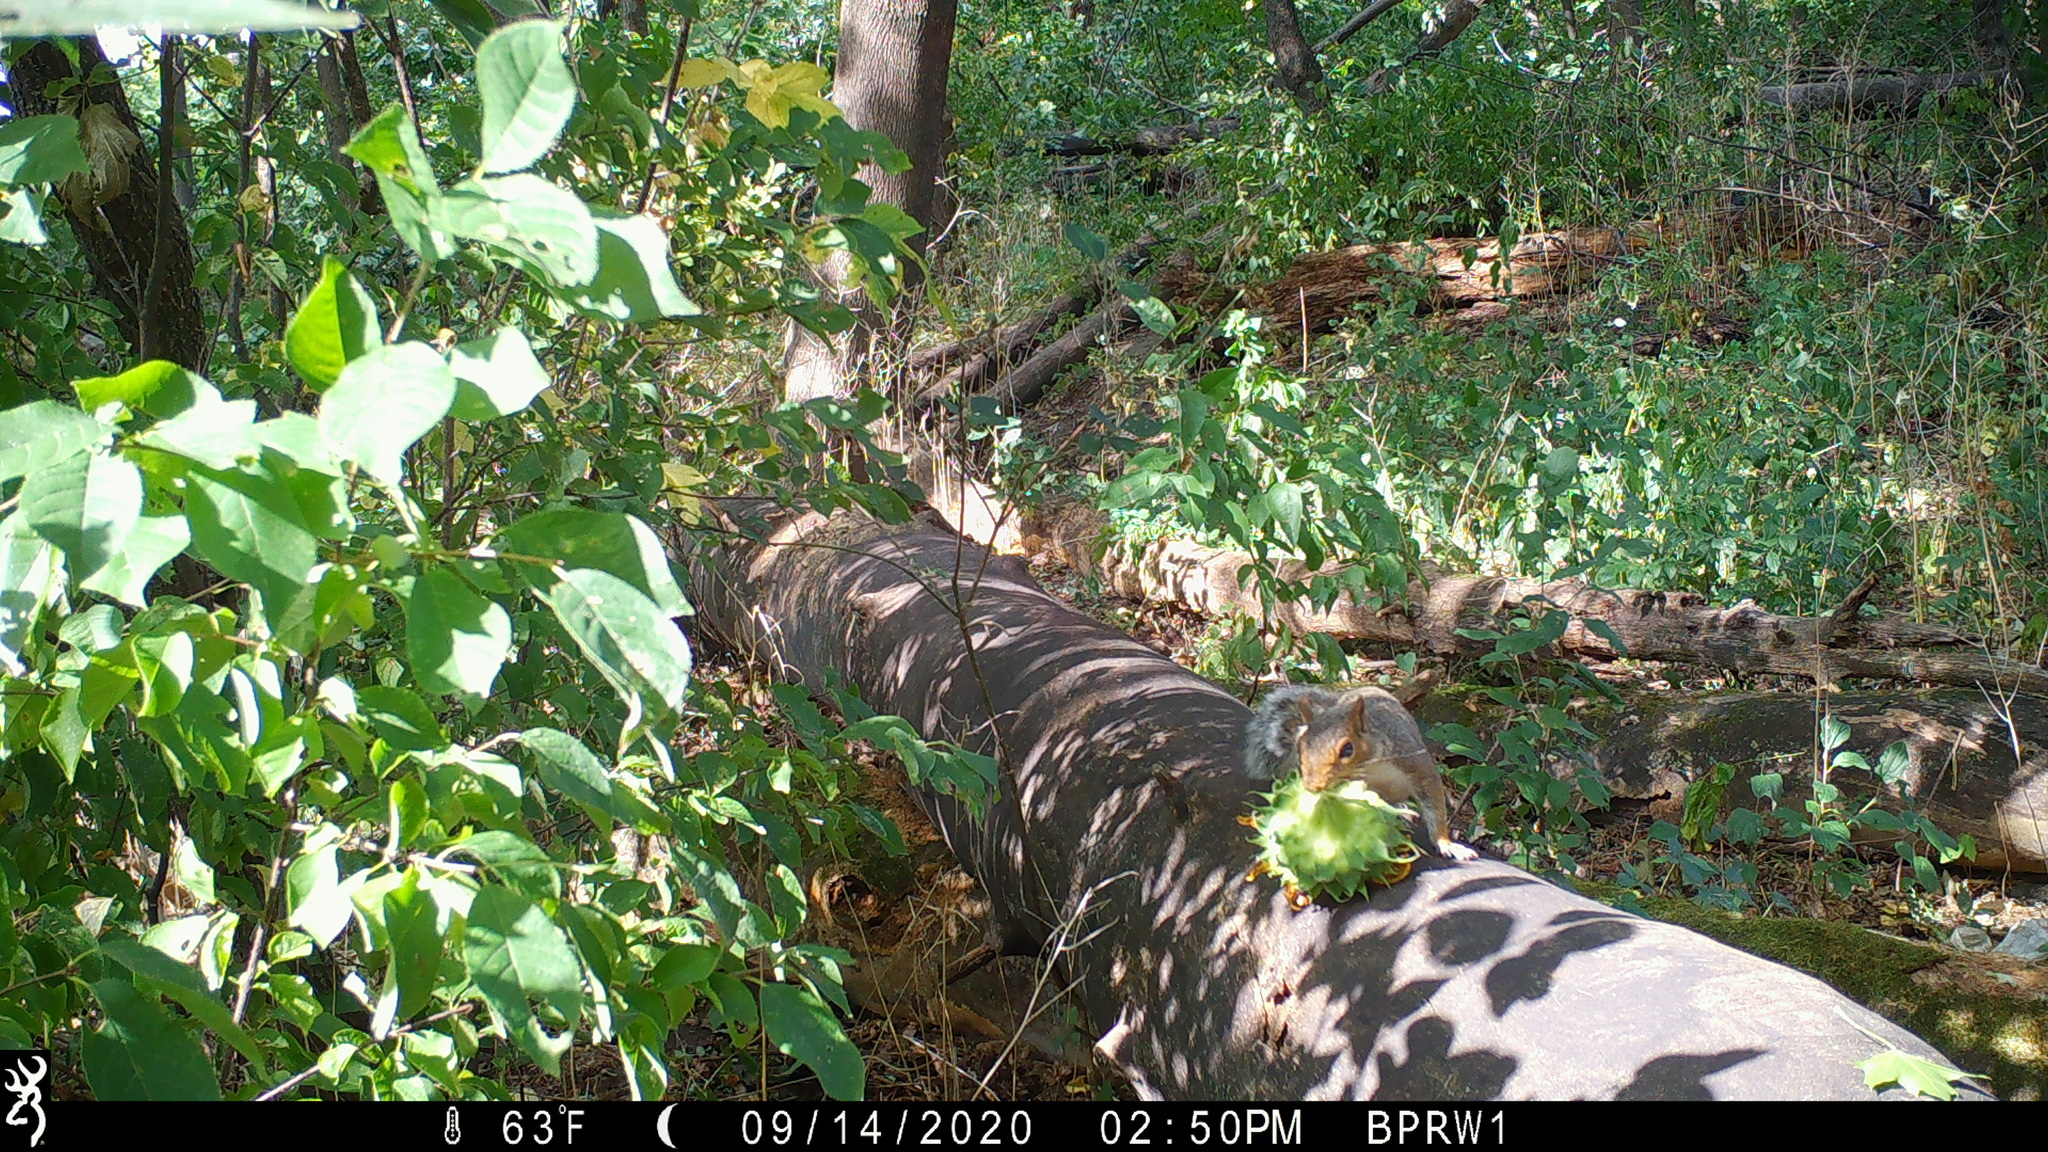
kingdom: Animalia
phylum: Chordata
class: Mammalia
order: Rodentia
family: Sciuridae
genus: Sciurus
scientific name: Sciurus carolinensis
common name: Eastern gray squirrel
